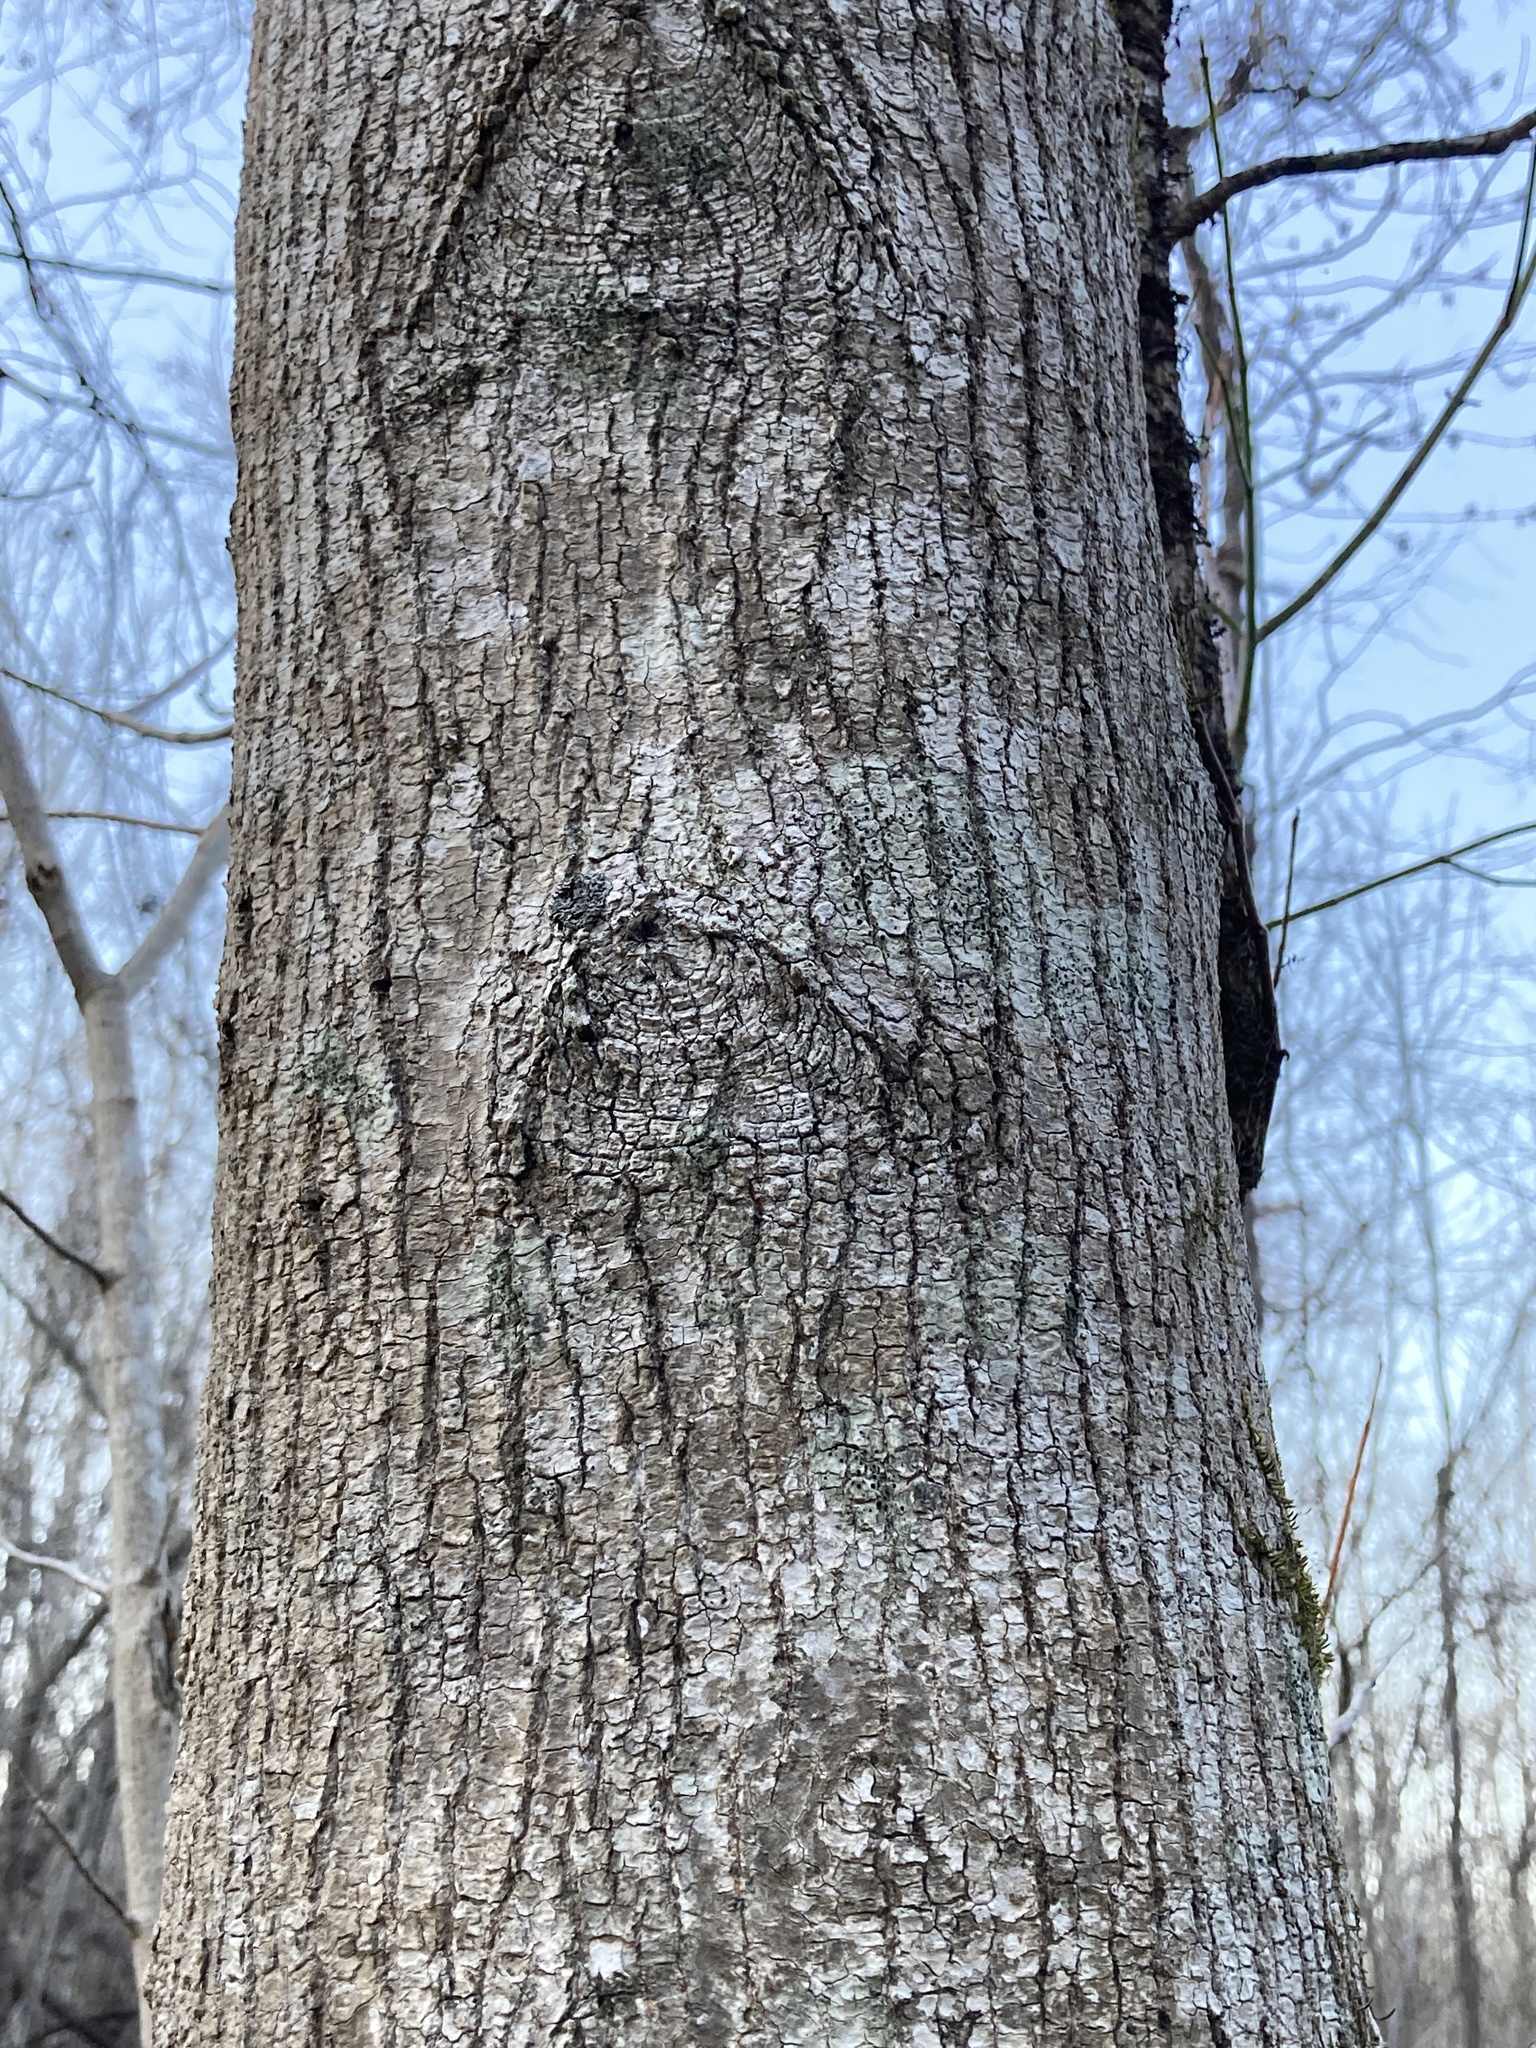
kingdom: Plantae
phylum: Tracheophyta
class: Magnoliopsida
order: Sapindales
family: Sapindaceae
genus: Acer
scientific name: Acer negundo
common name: Ashleaf maple
